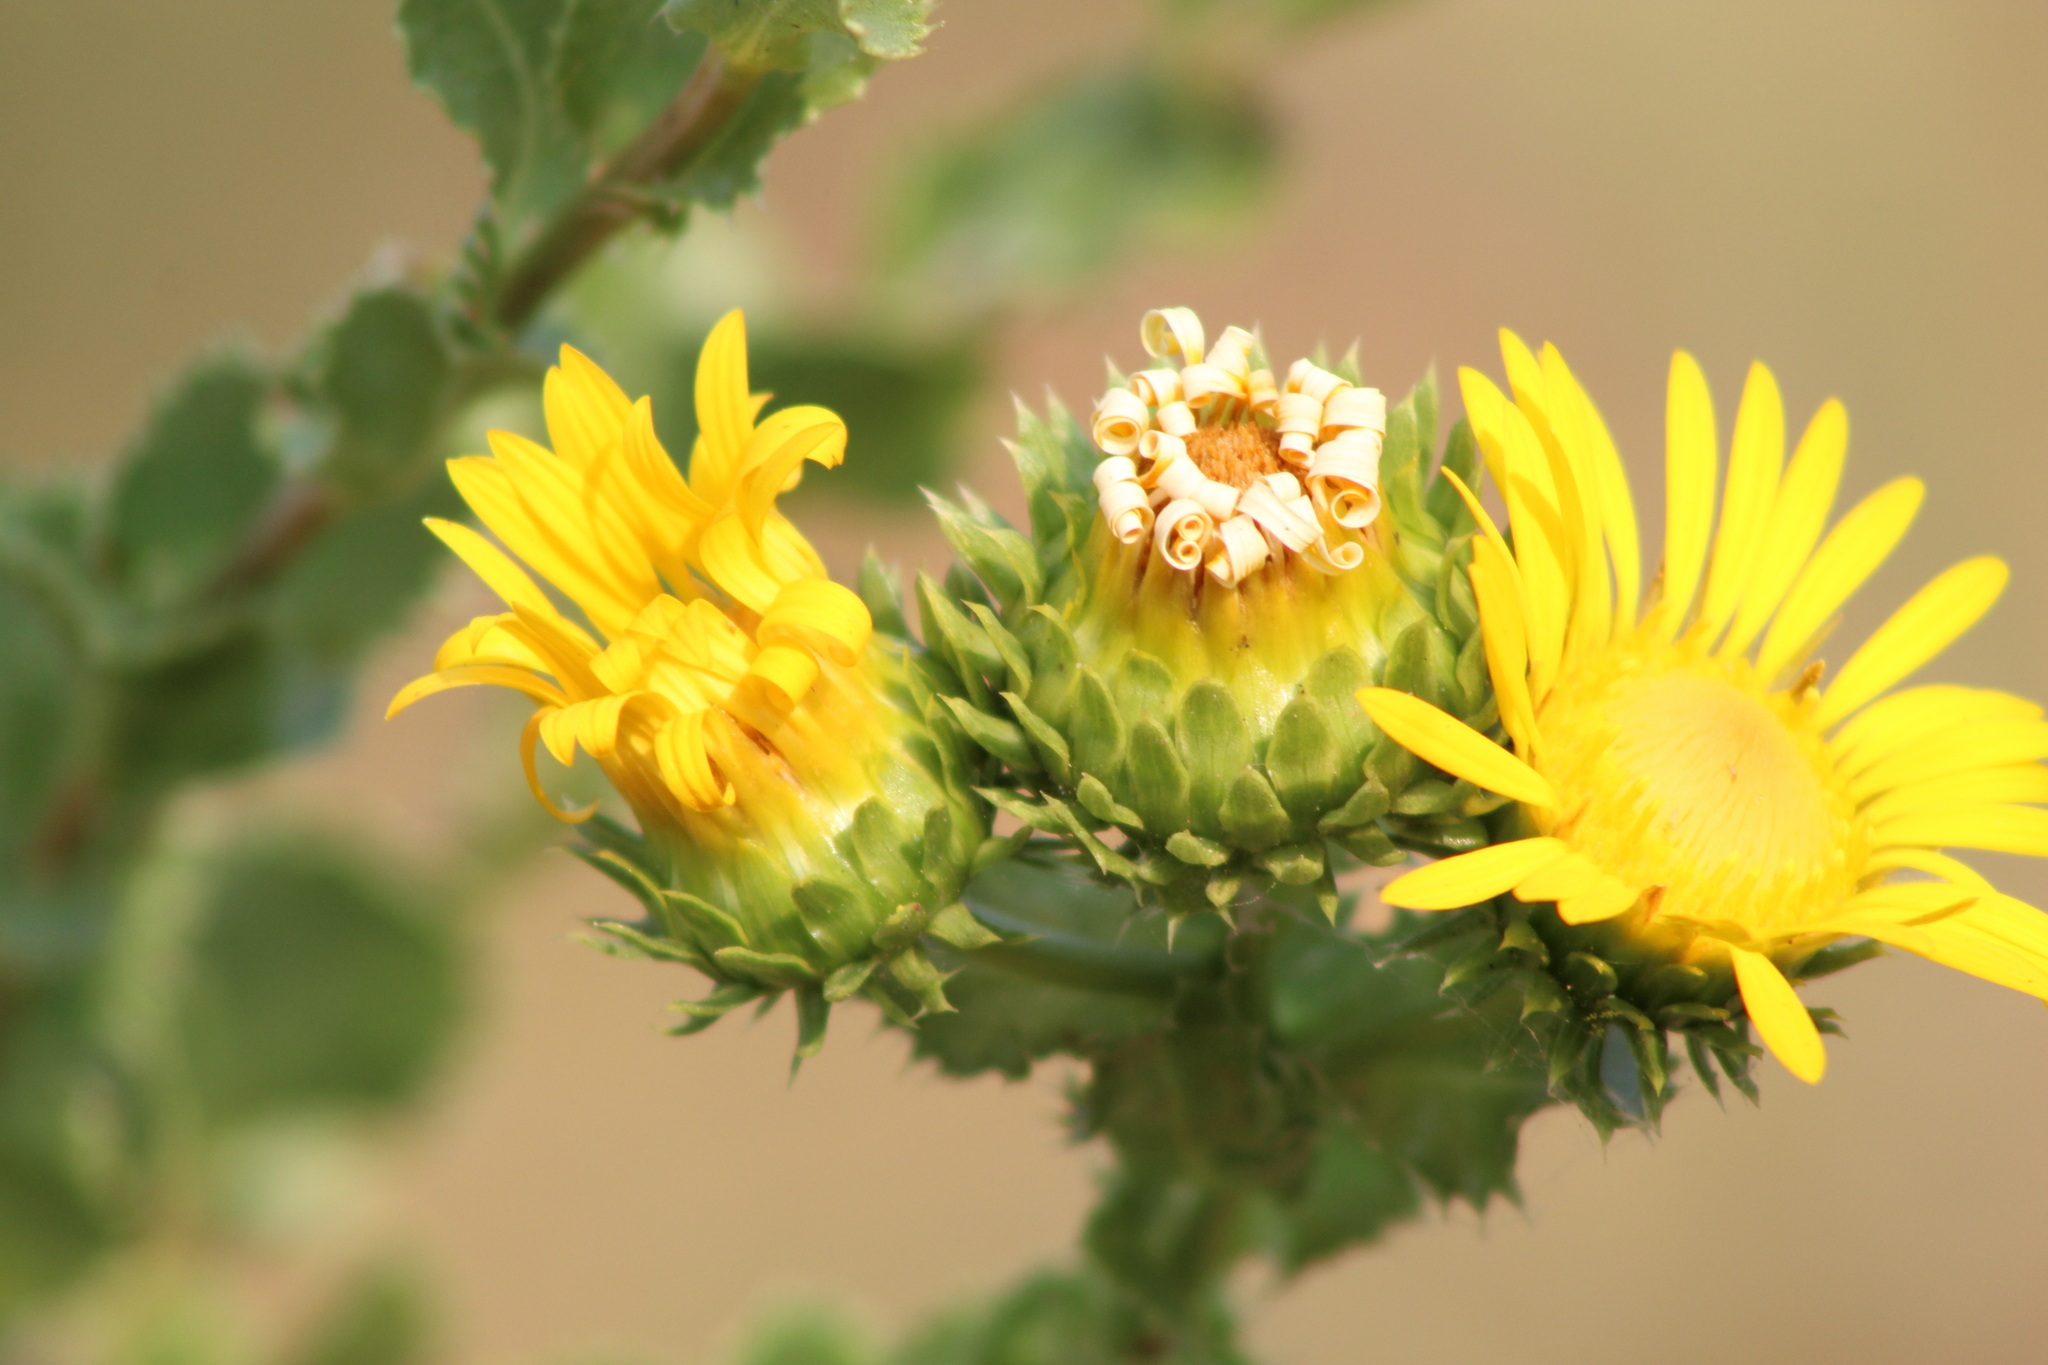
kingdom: Plantae
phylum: Tracheophyta
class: Magnoliopsida
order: Asterales
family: Asteraceae
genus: Grindelia
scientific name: Grindelia ciliata
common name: Goldenweed
